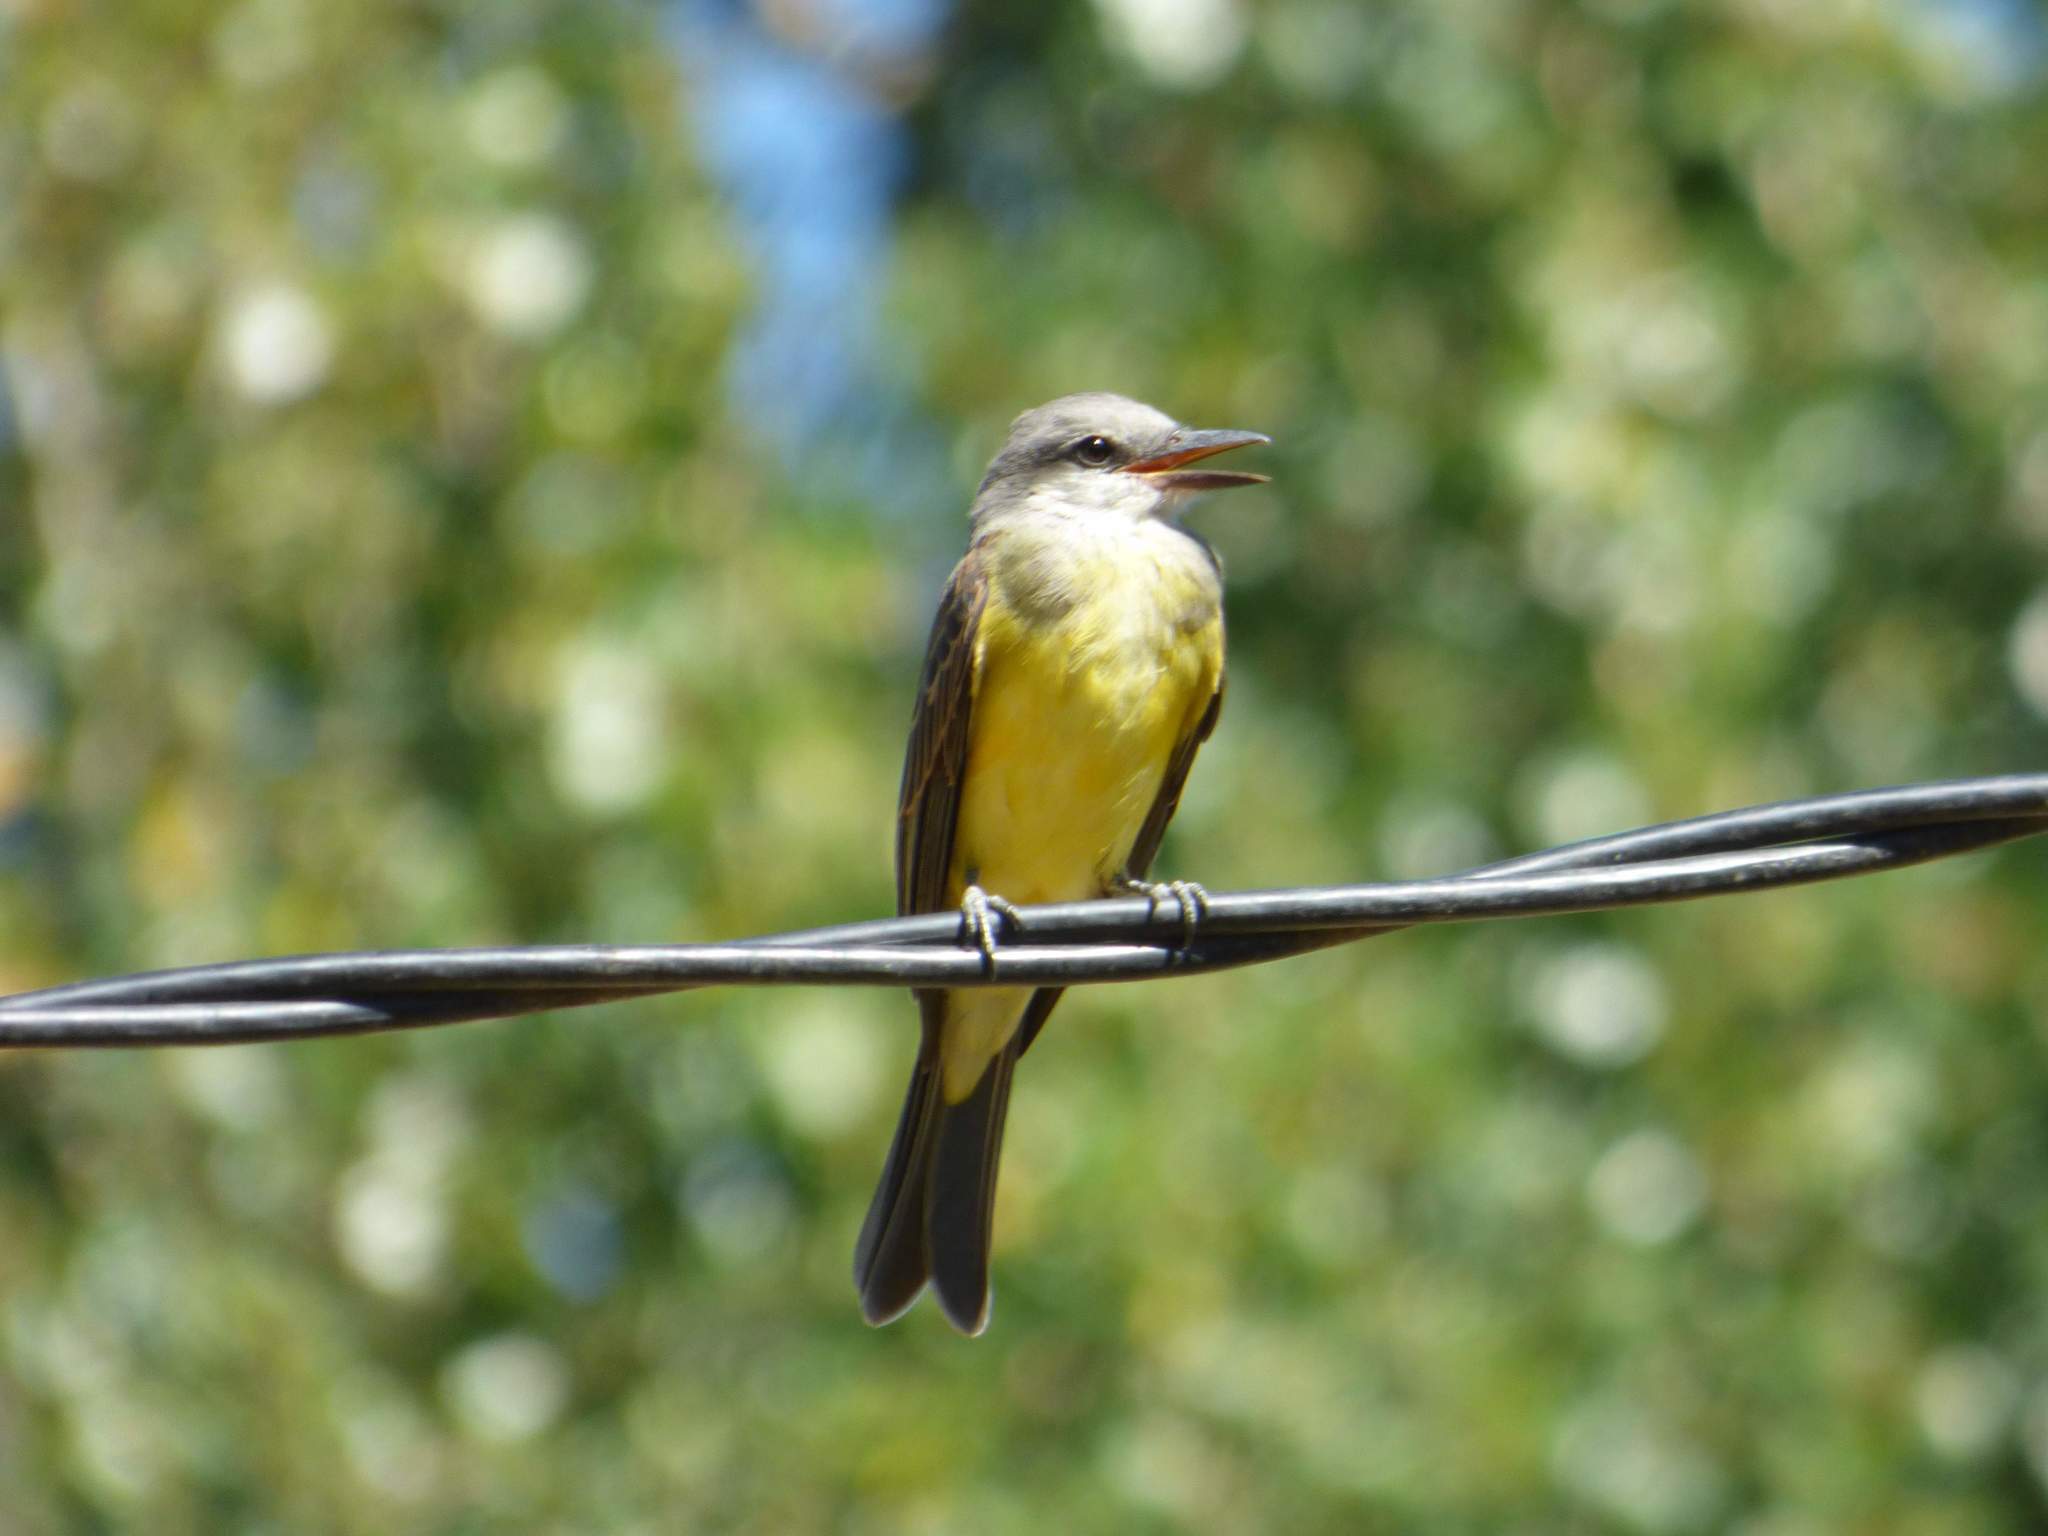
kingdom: Animalia
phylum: Chordata
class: Aves
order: Passeriformes
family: Tyrannidae
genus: Tyrannus
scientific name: Tyrannus melancholicus
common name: Tropical kingbird
